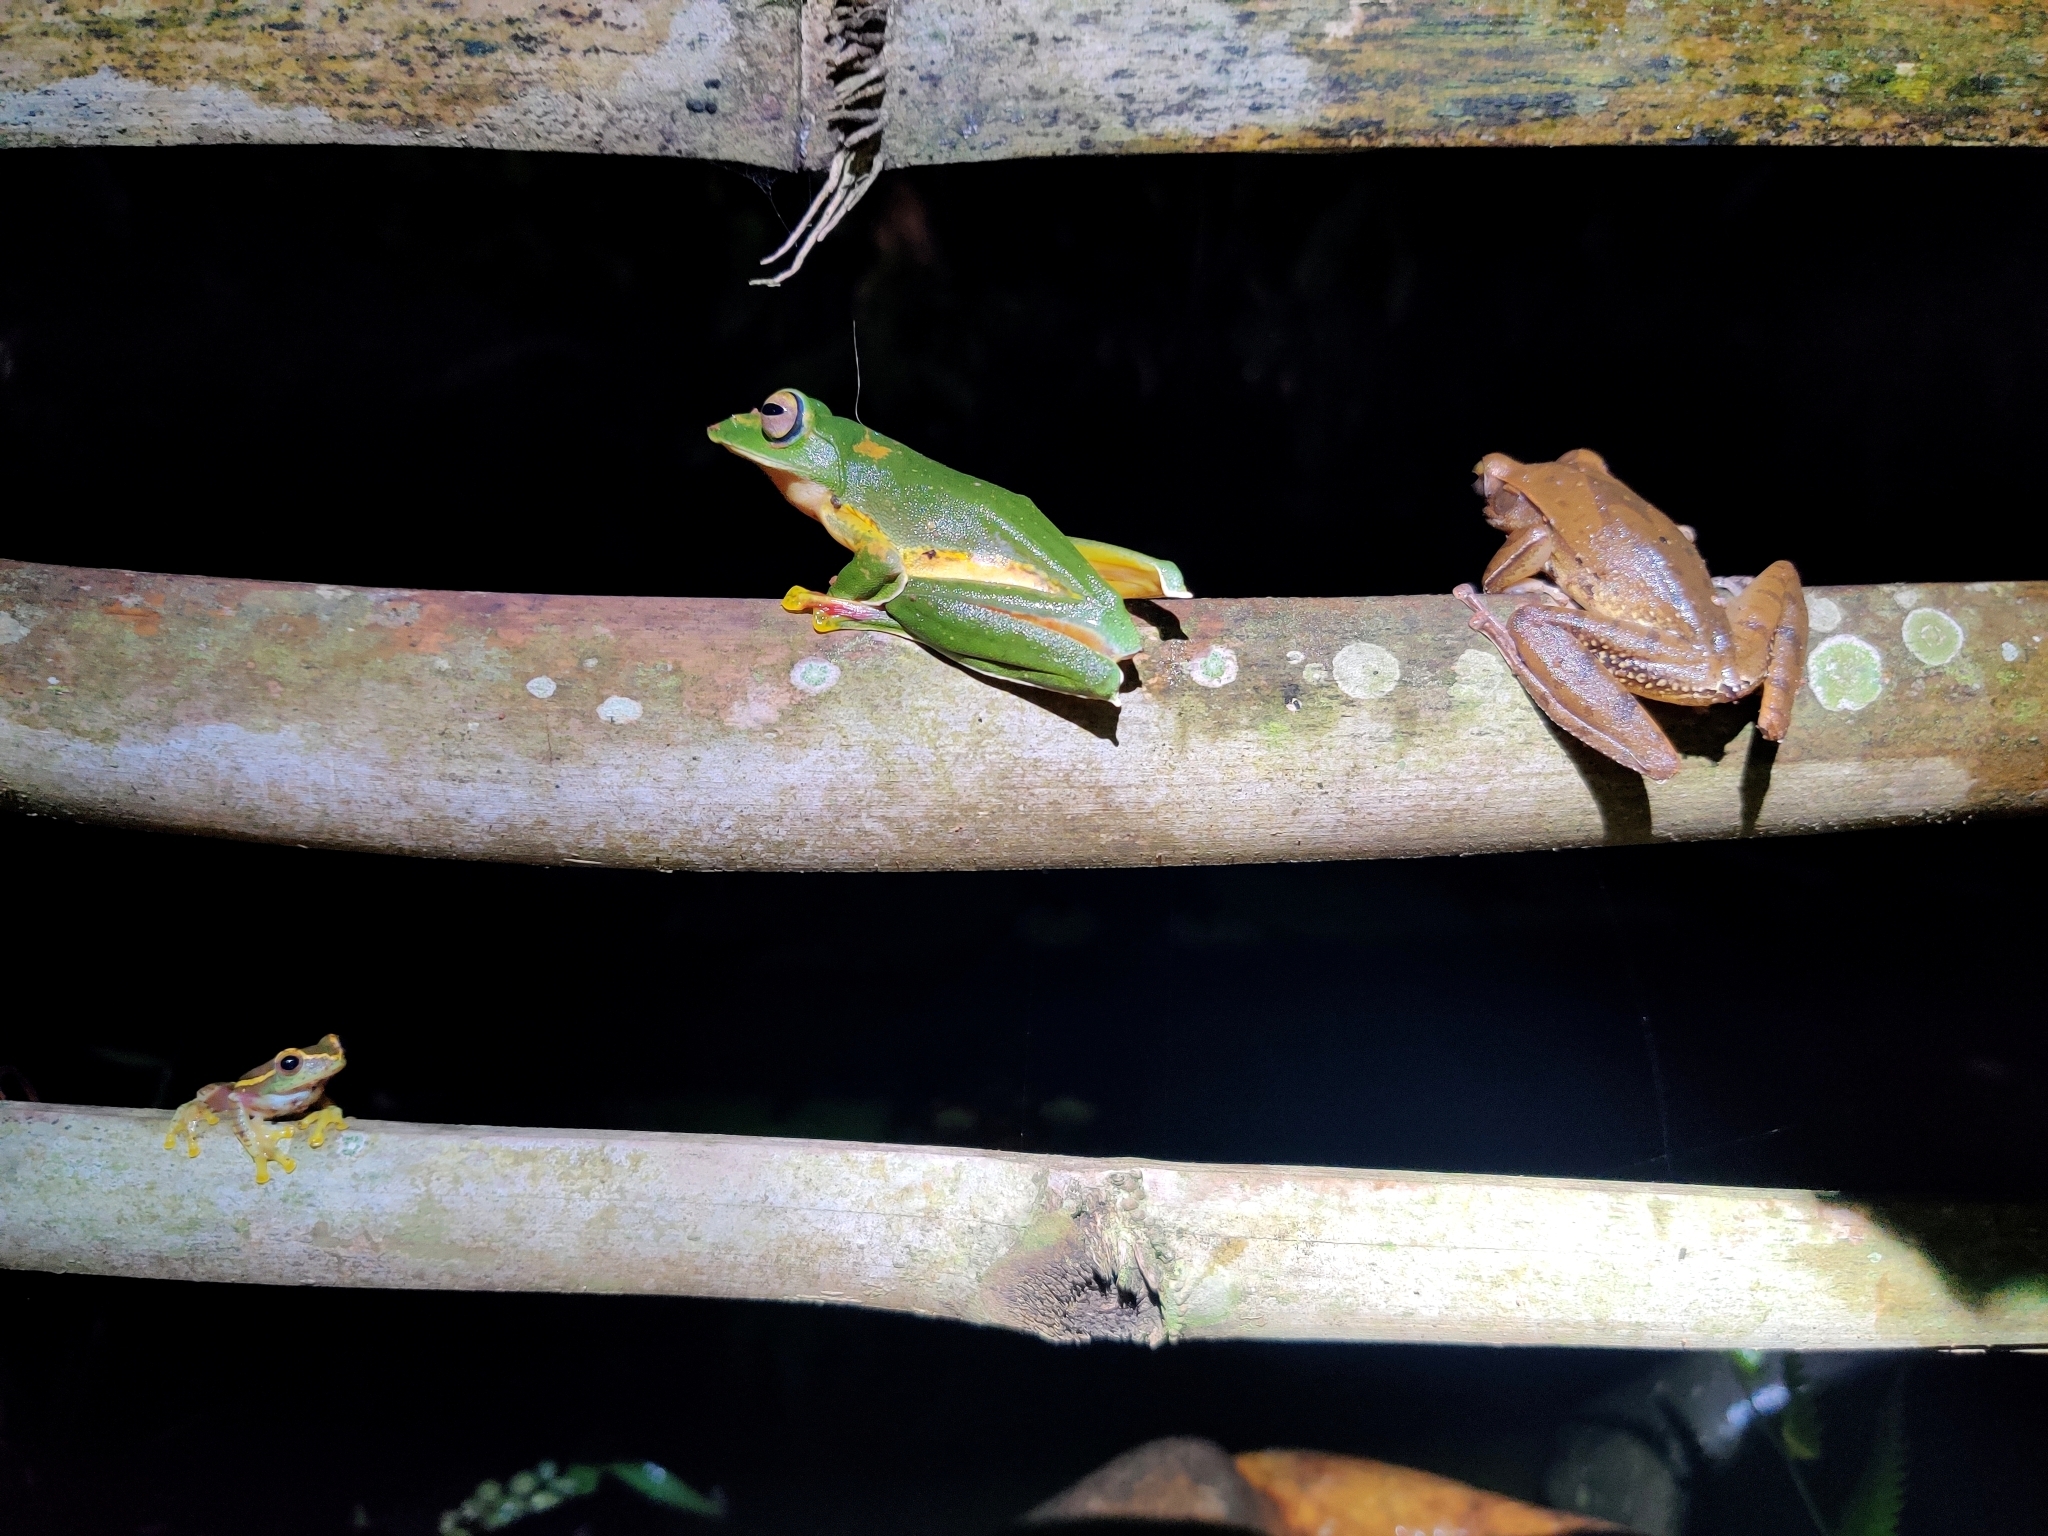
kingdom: Animalia
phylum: Chordata
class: Amphibia
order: Anura
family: Rhacophoridae
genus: Rhacophorus
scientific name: Rhacophorus malabaricus
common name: Malabar gliding frog
